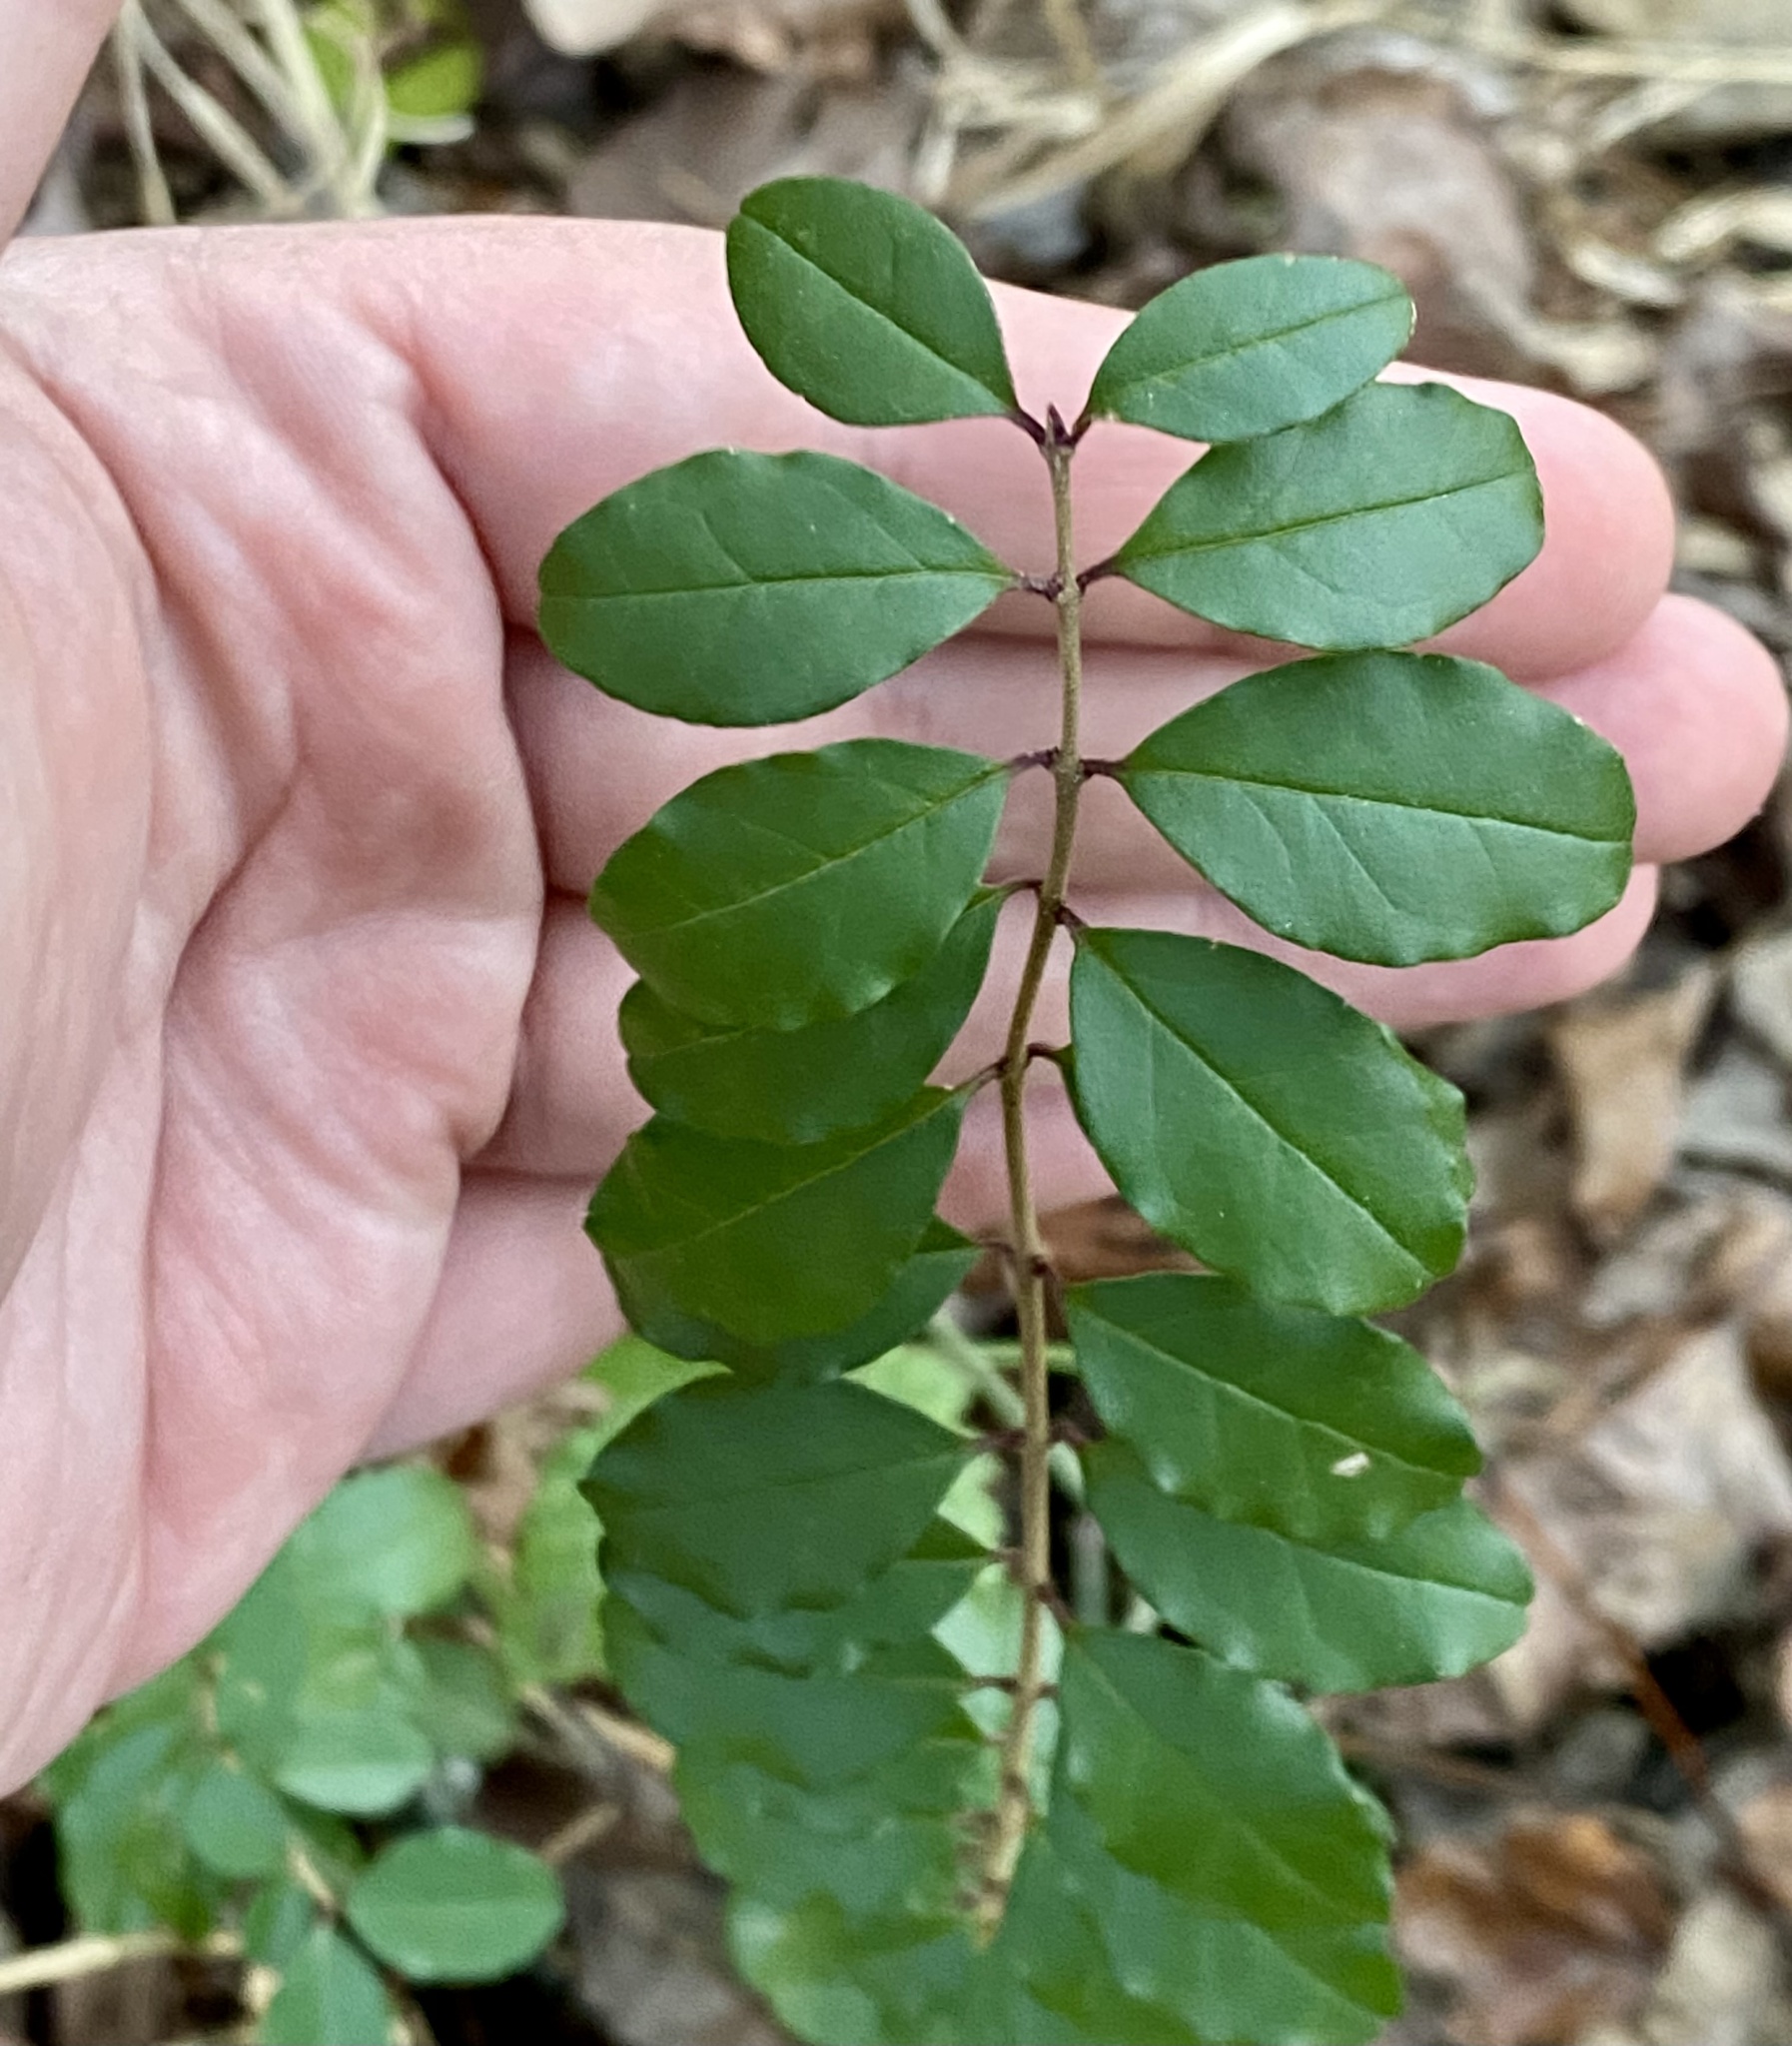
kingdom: Plantae
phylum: Tracheophyta
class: Magnoliopsida
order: Lamiales
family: Oleaceae
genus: Ligustrum
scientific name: Ligustrum sinense
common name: Chinese privet
